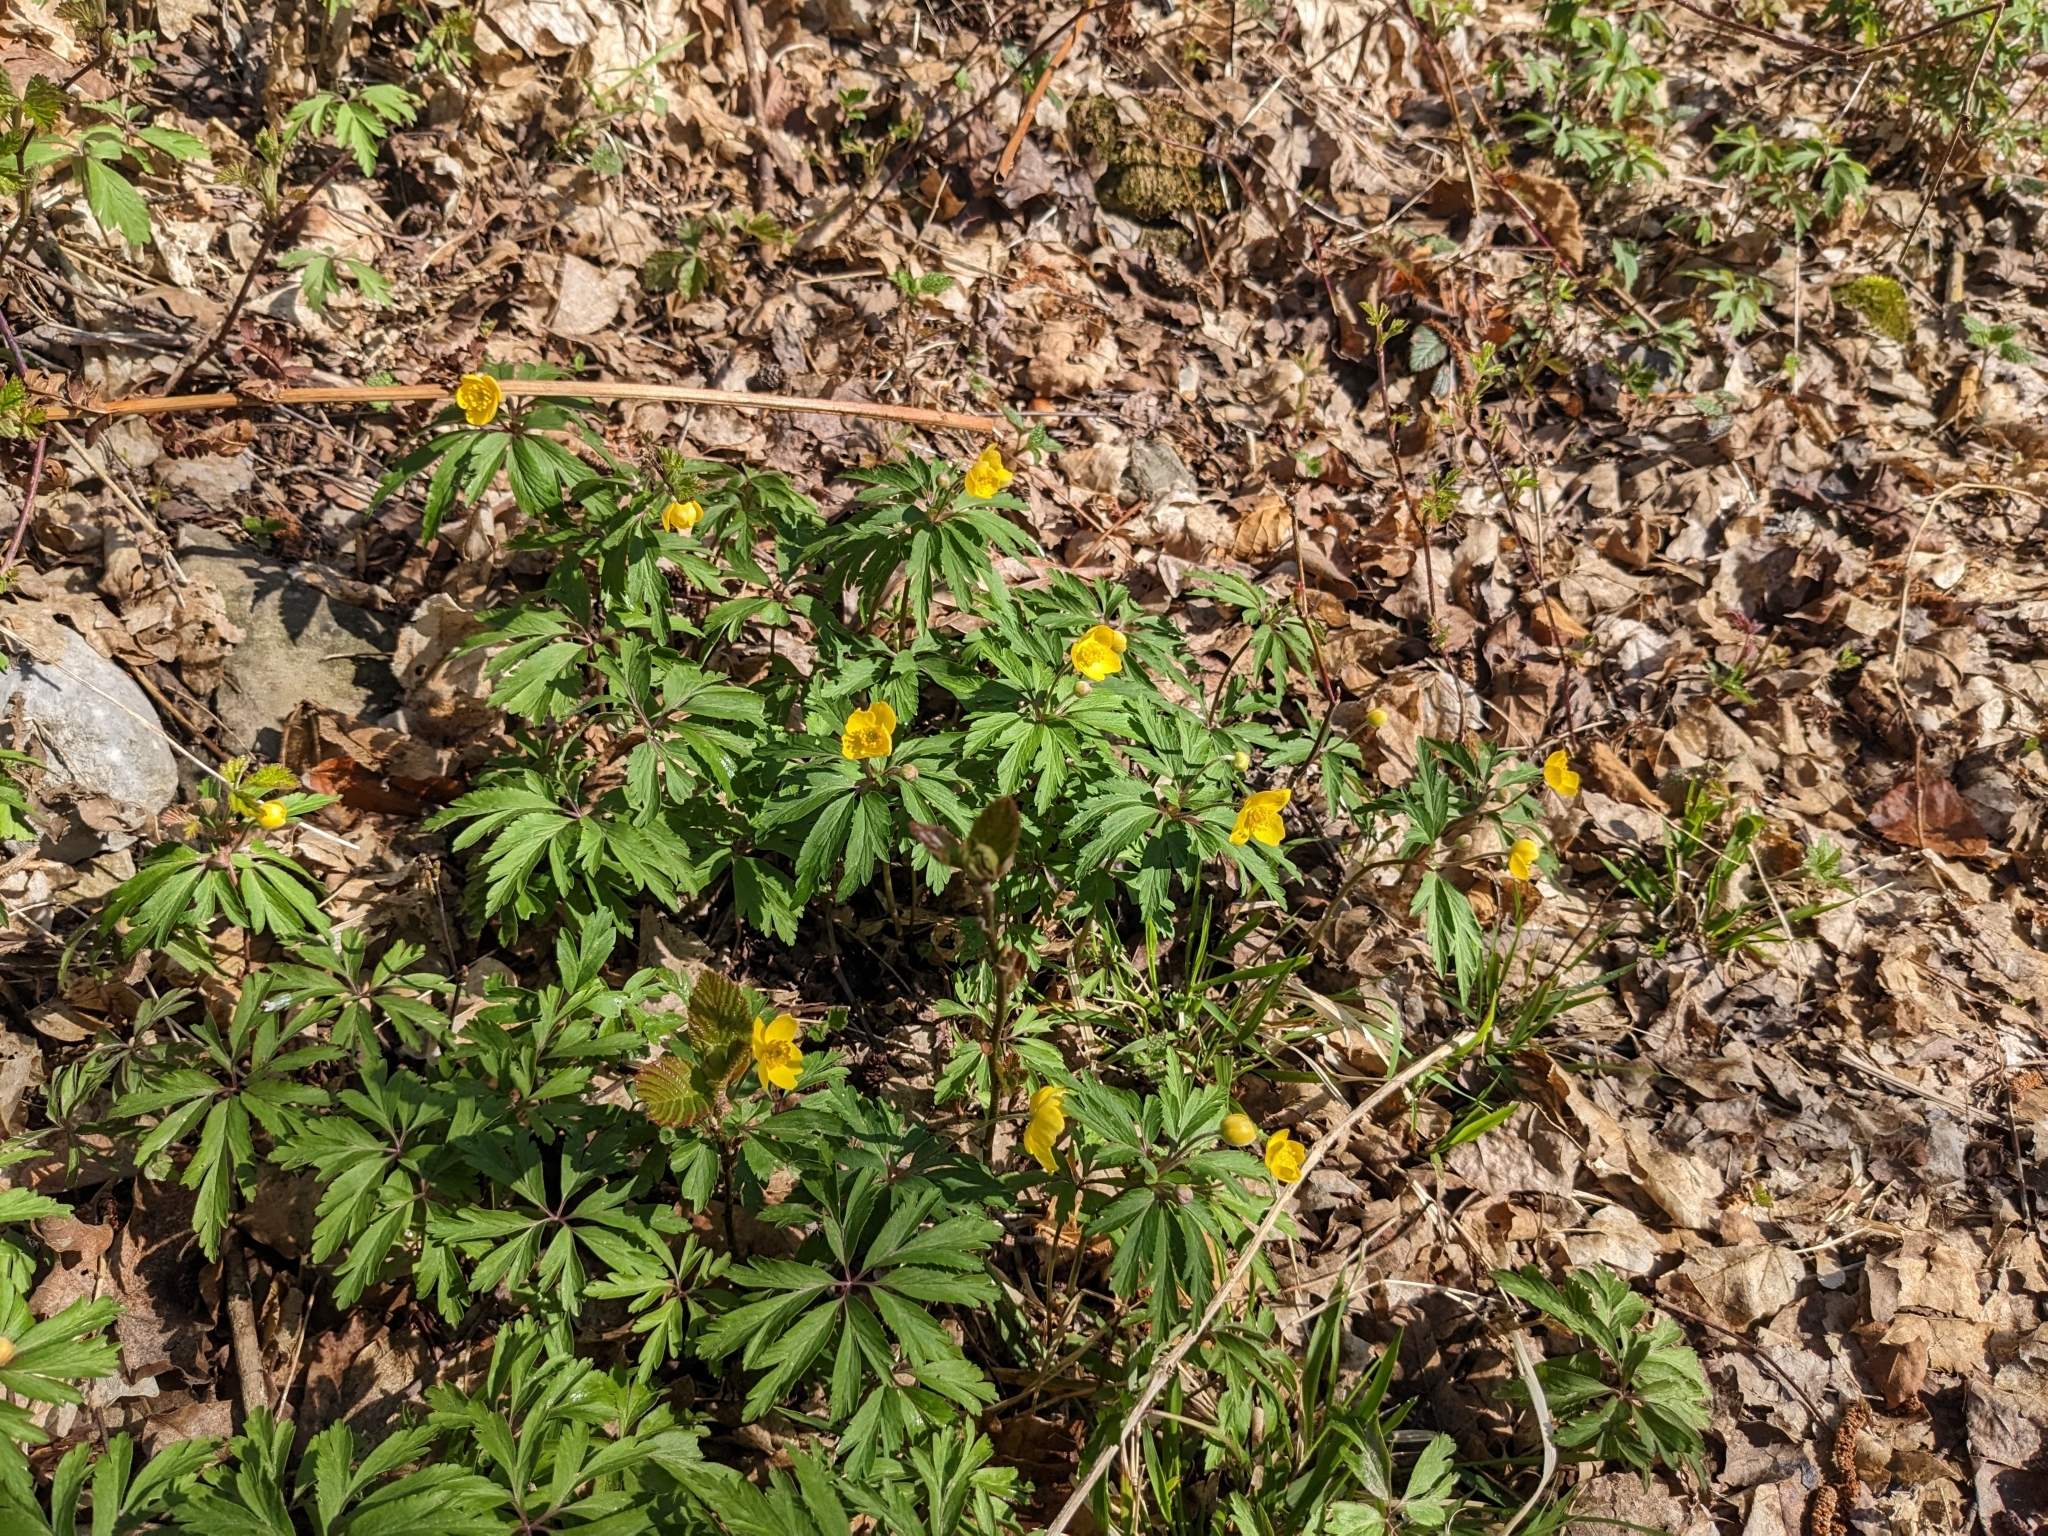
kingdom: Plantae
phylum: Tracheophyta
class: Magnoliopsida
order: Ranunculales
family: Ranunculaceae
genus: Anemone
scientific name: Anemone ranunculoides
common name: Yellow anemone
